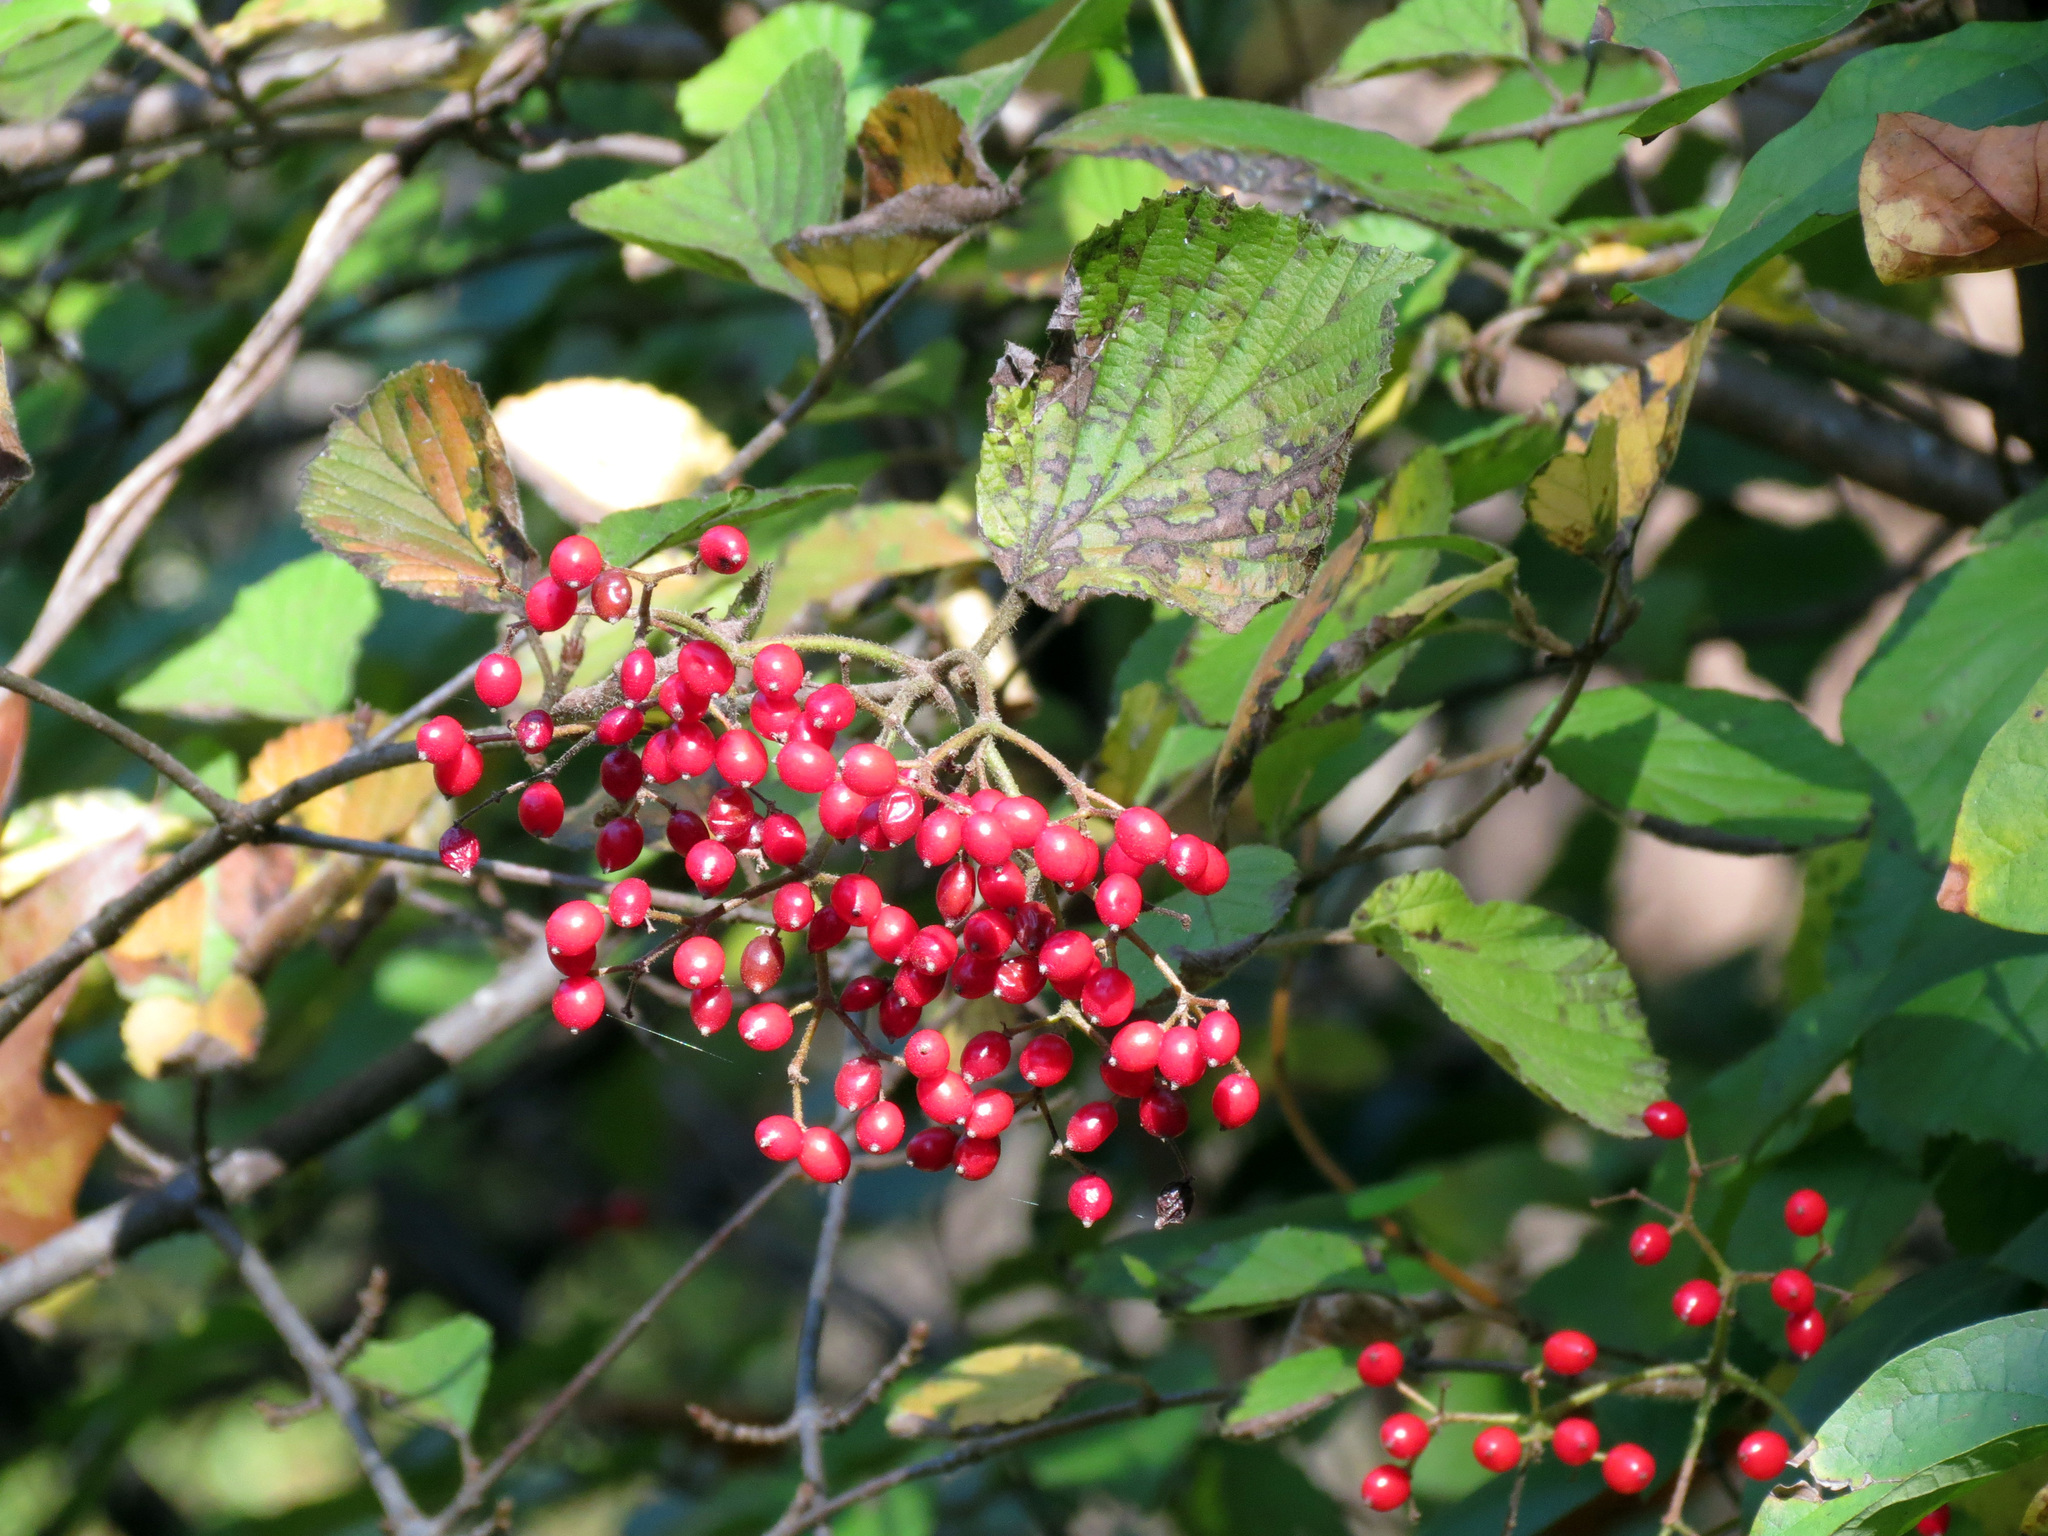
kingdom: Plantae
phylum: Tracheophyta
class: Magnoliopsida
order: Dipsacales
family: Viburnaceae
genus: Viburnum
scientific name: Viburnum dilatatum
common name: Linden arrowwood
